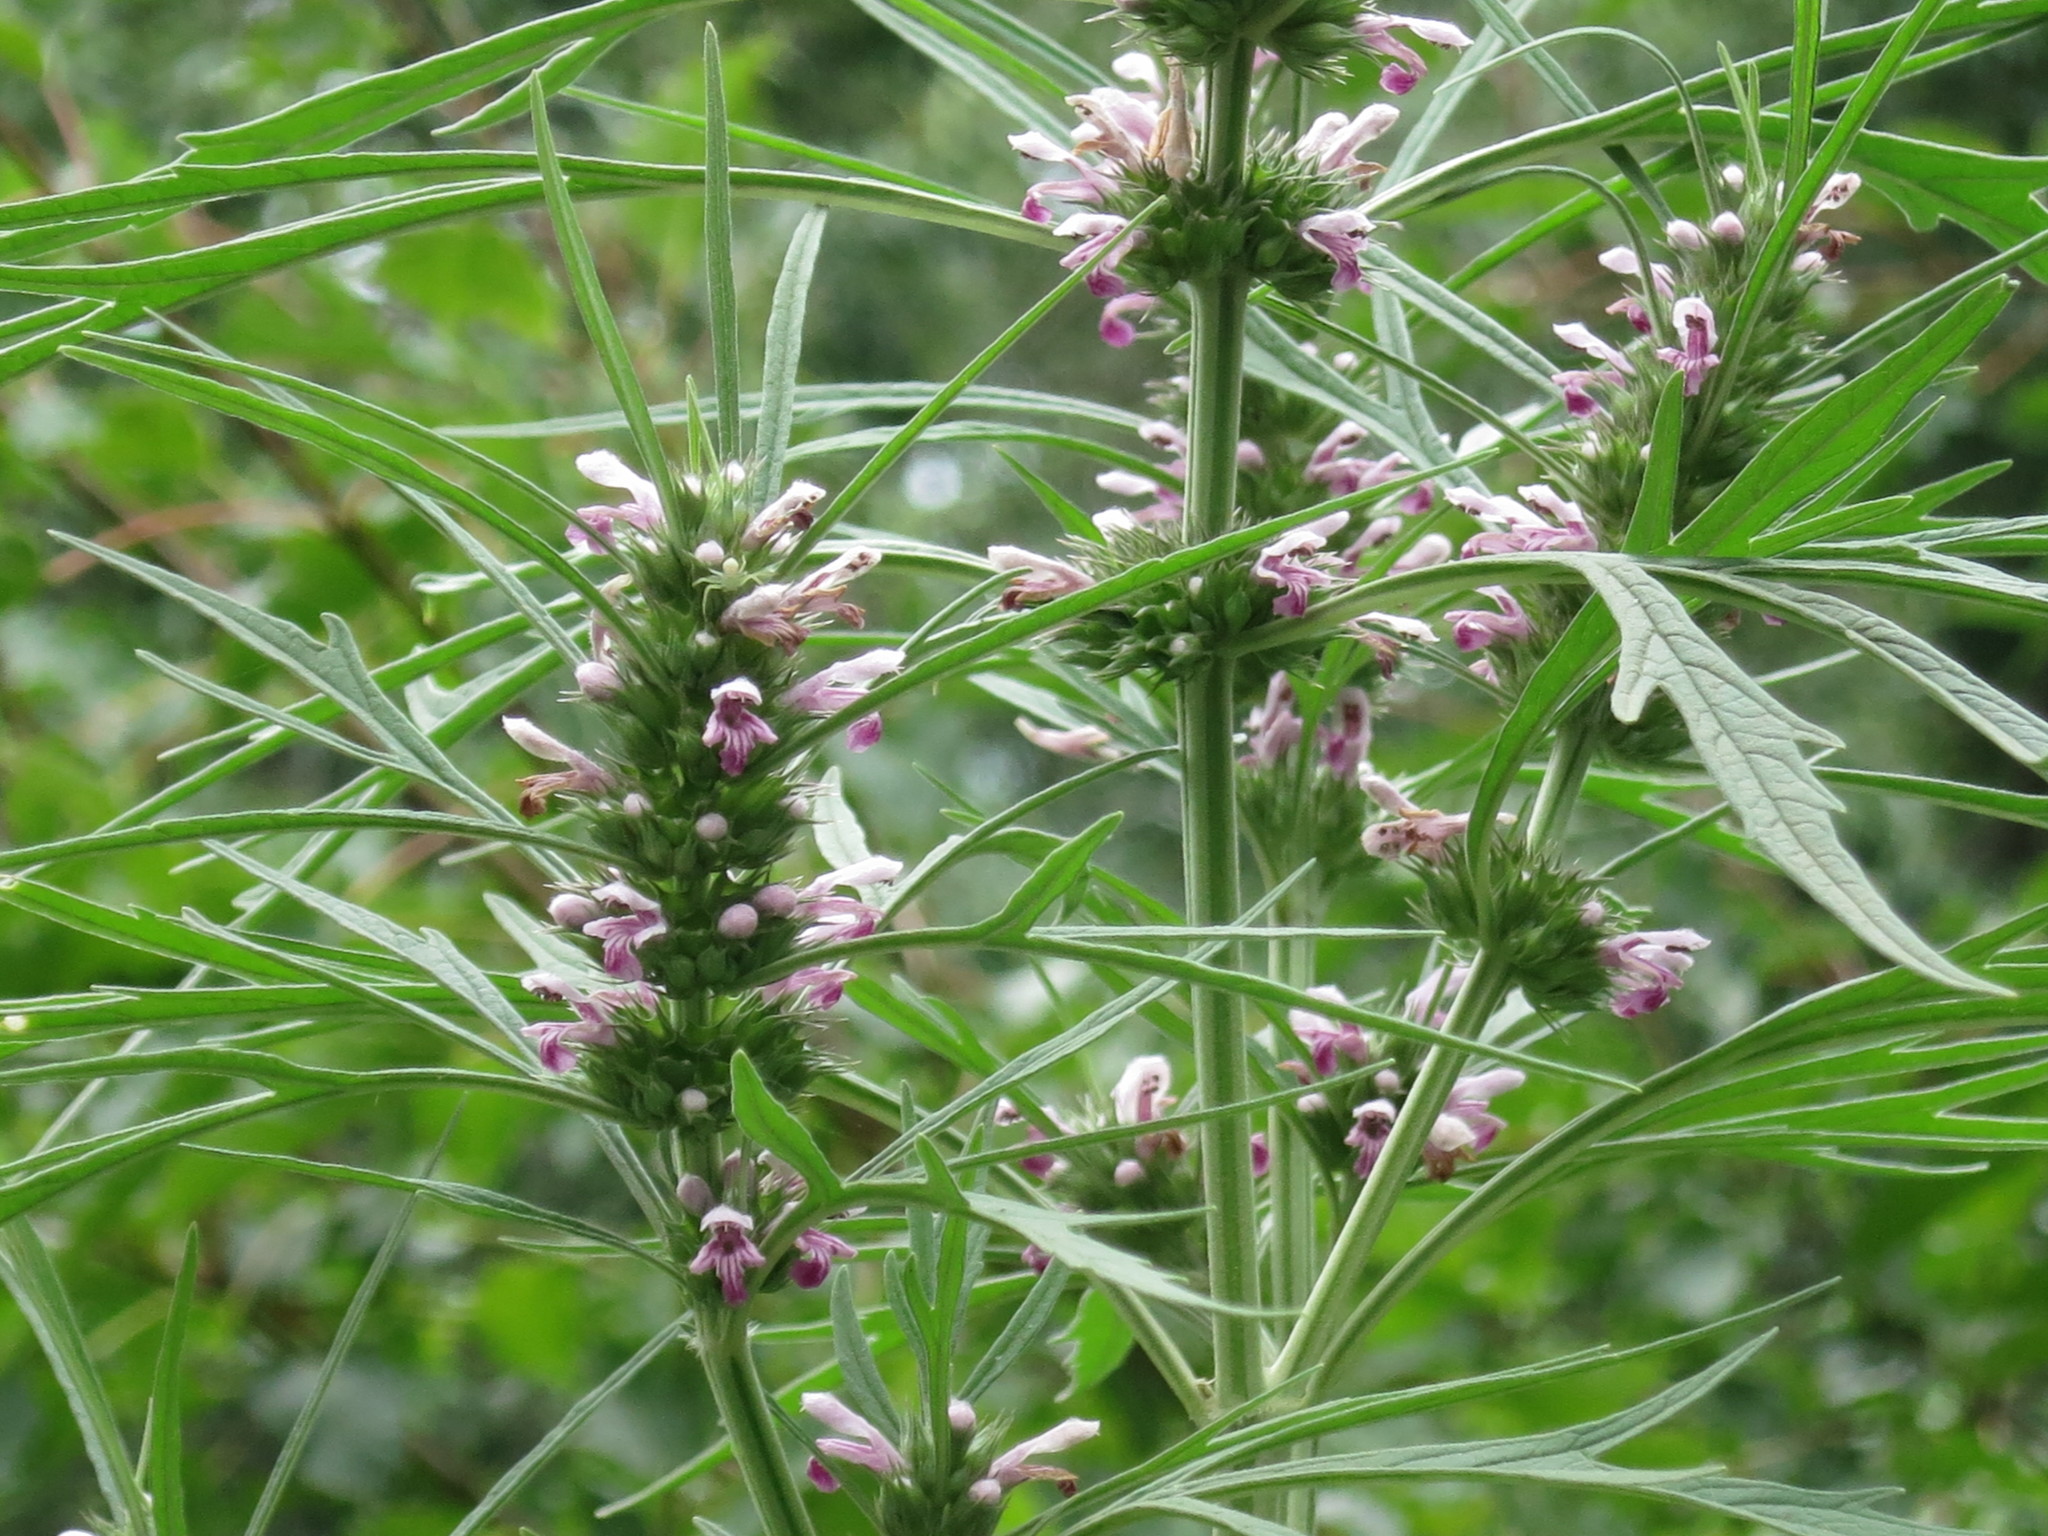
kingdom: Plantae
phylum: Tracheophyta
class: Magnoliopsida
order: Lamiales
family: Lamiaceae
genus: Leonurus
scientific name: Leonurus japonicus
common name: Honeyweed
